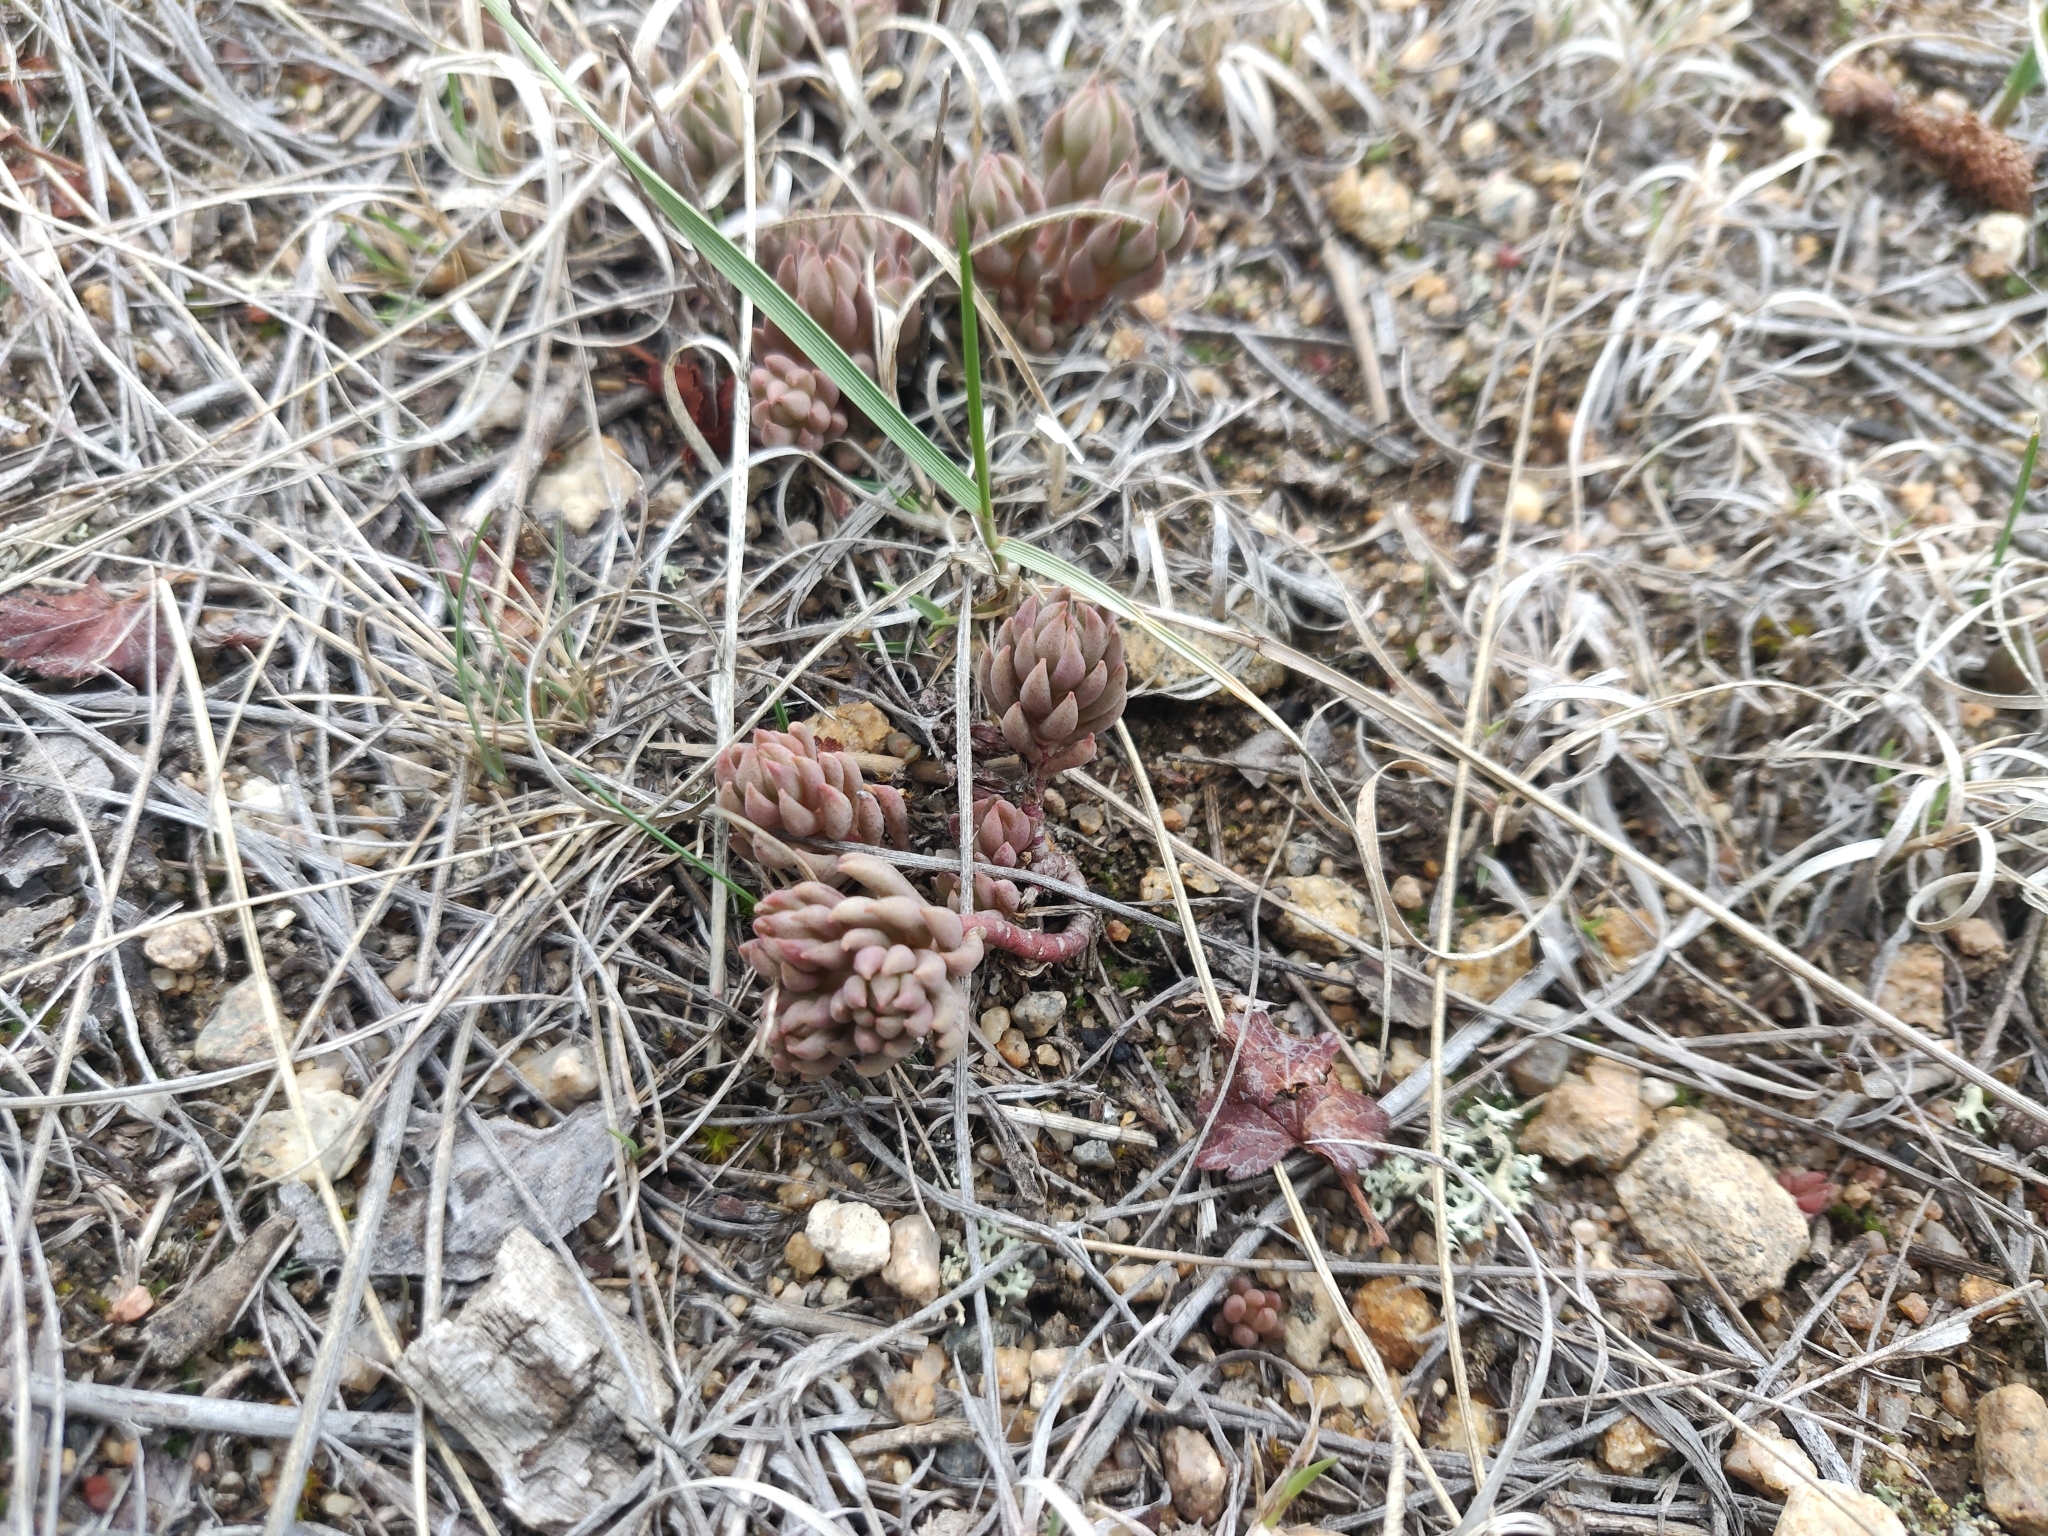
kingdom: Plantae
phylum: Tracheophyta
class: Magnoliopsida
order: Saxifragales
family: Crassulaceae
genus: Sedum
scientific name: Sedum lanceolatum
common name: Common stonecrop
